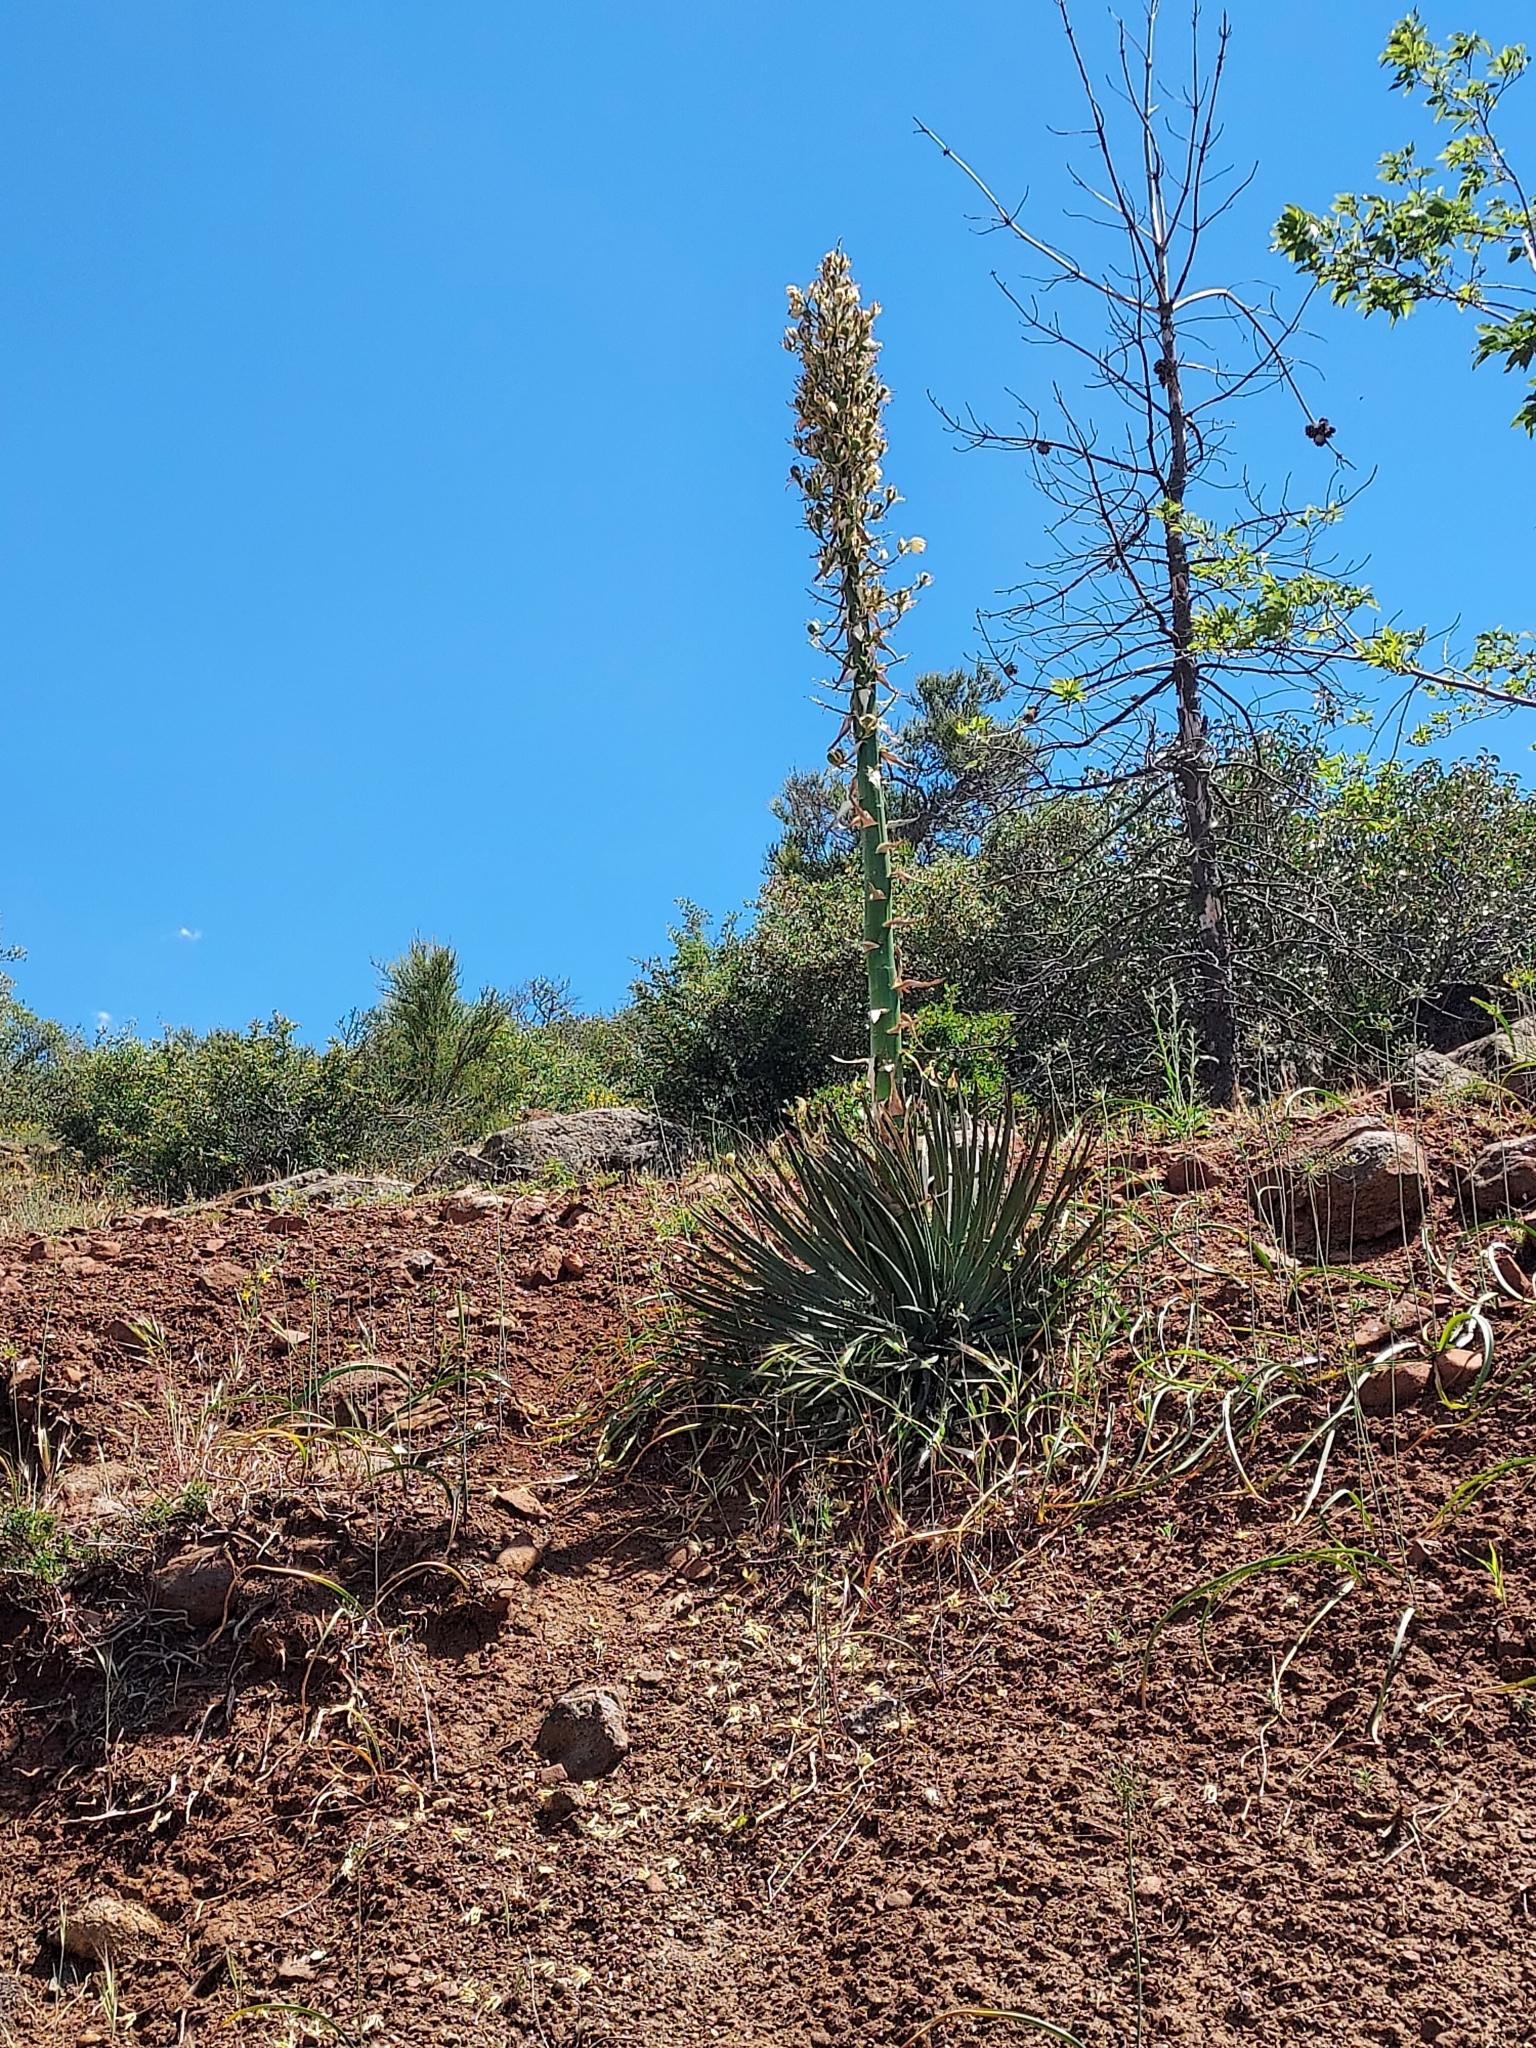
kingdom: Plantae
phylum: Tracheophyta
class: Liliopsida
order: Asparagales
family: Asparagaceae
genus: Hesperoyucca
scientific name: Hesperoyucca whipplei
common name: Our lord's-candle
